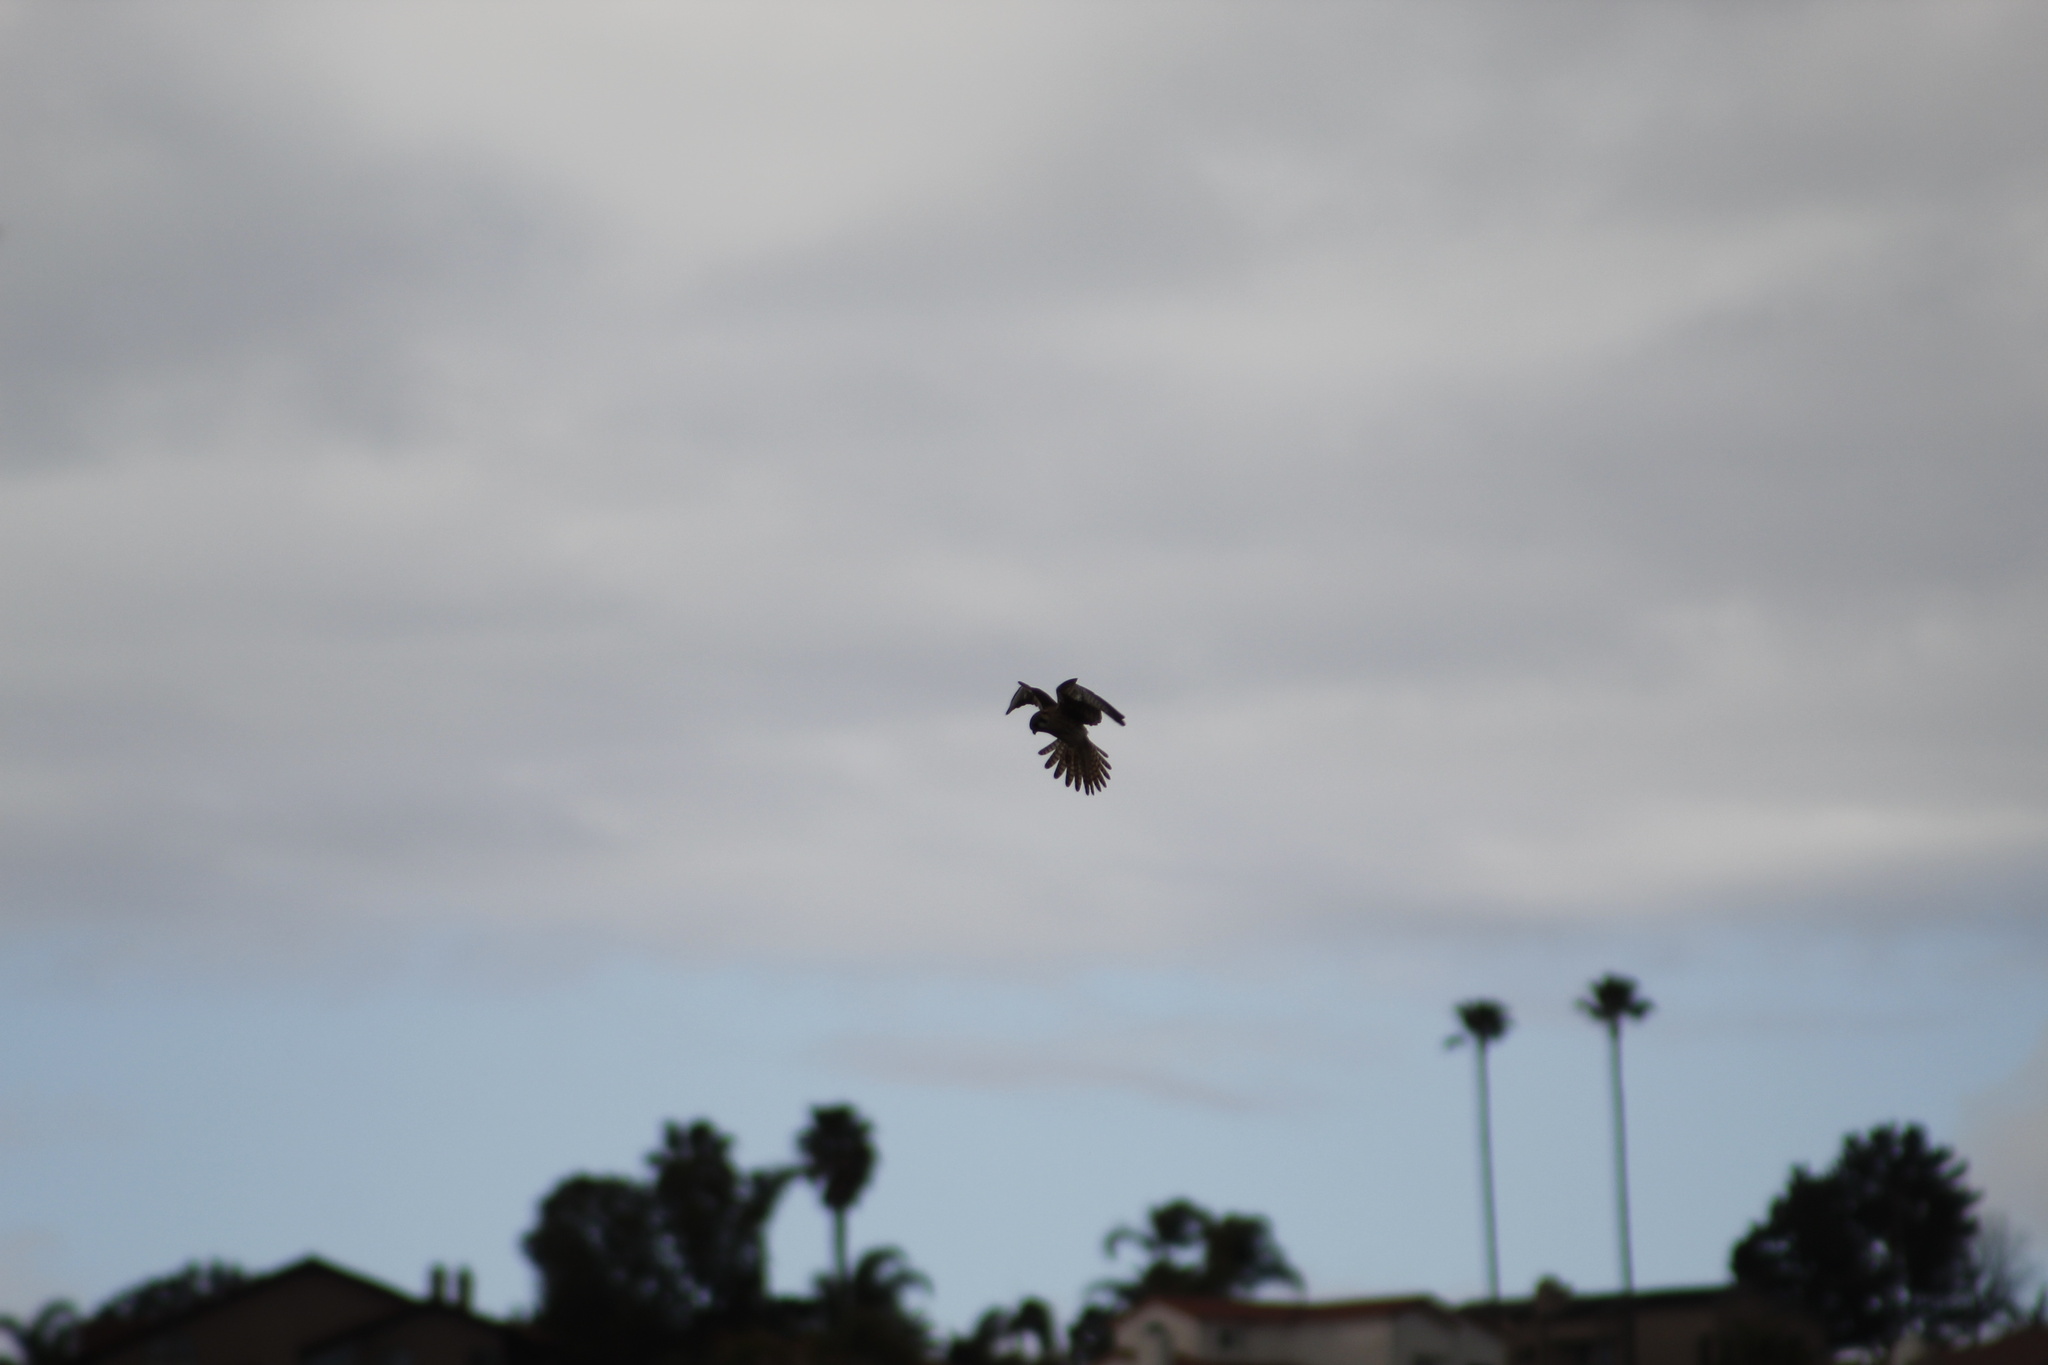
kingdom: Animalia
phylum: Chordata
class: Aves
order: Falconiformes
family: Falconidae
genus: Falco
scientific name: Falco sparverius
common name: American kestrel
